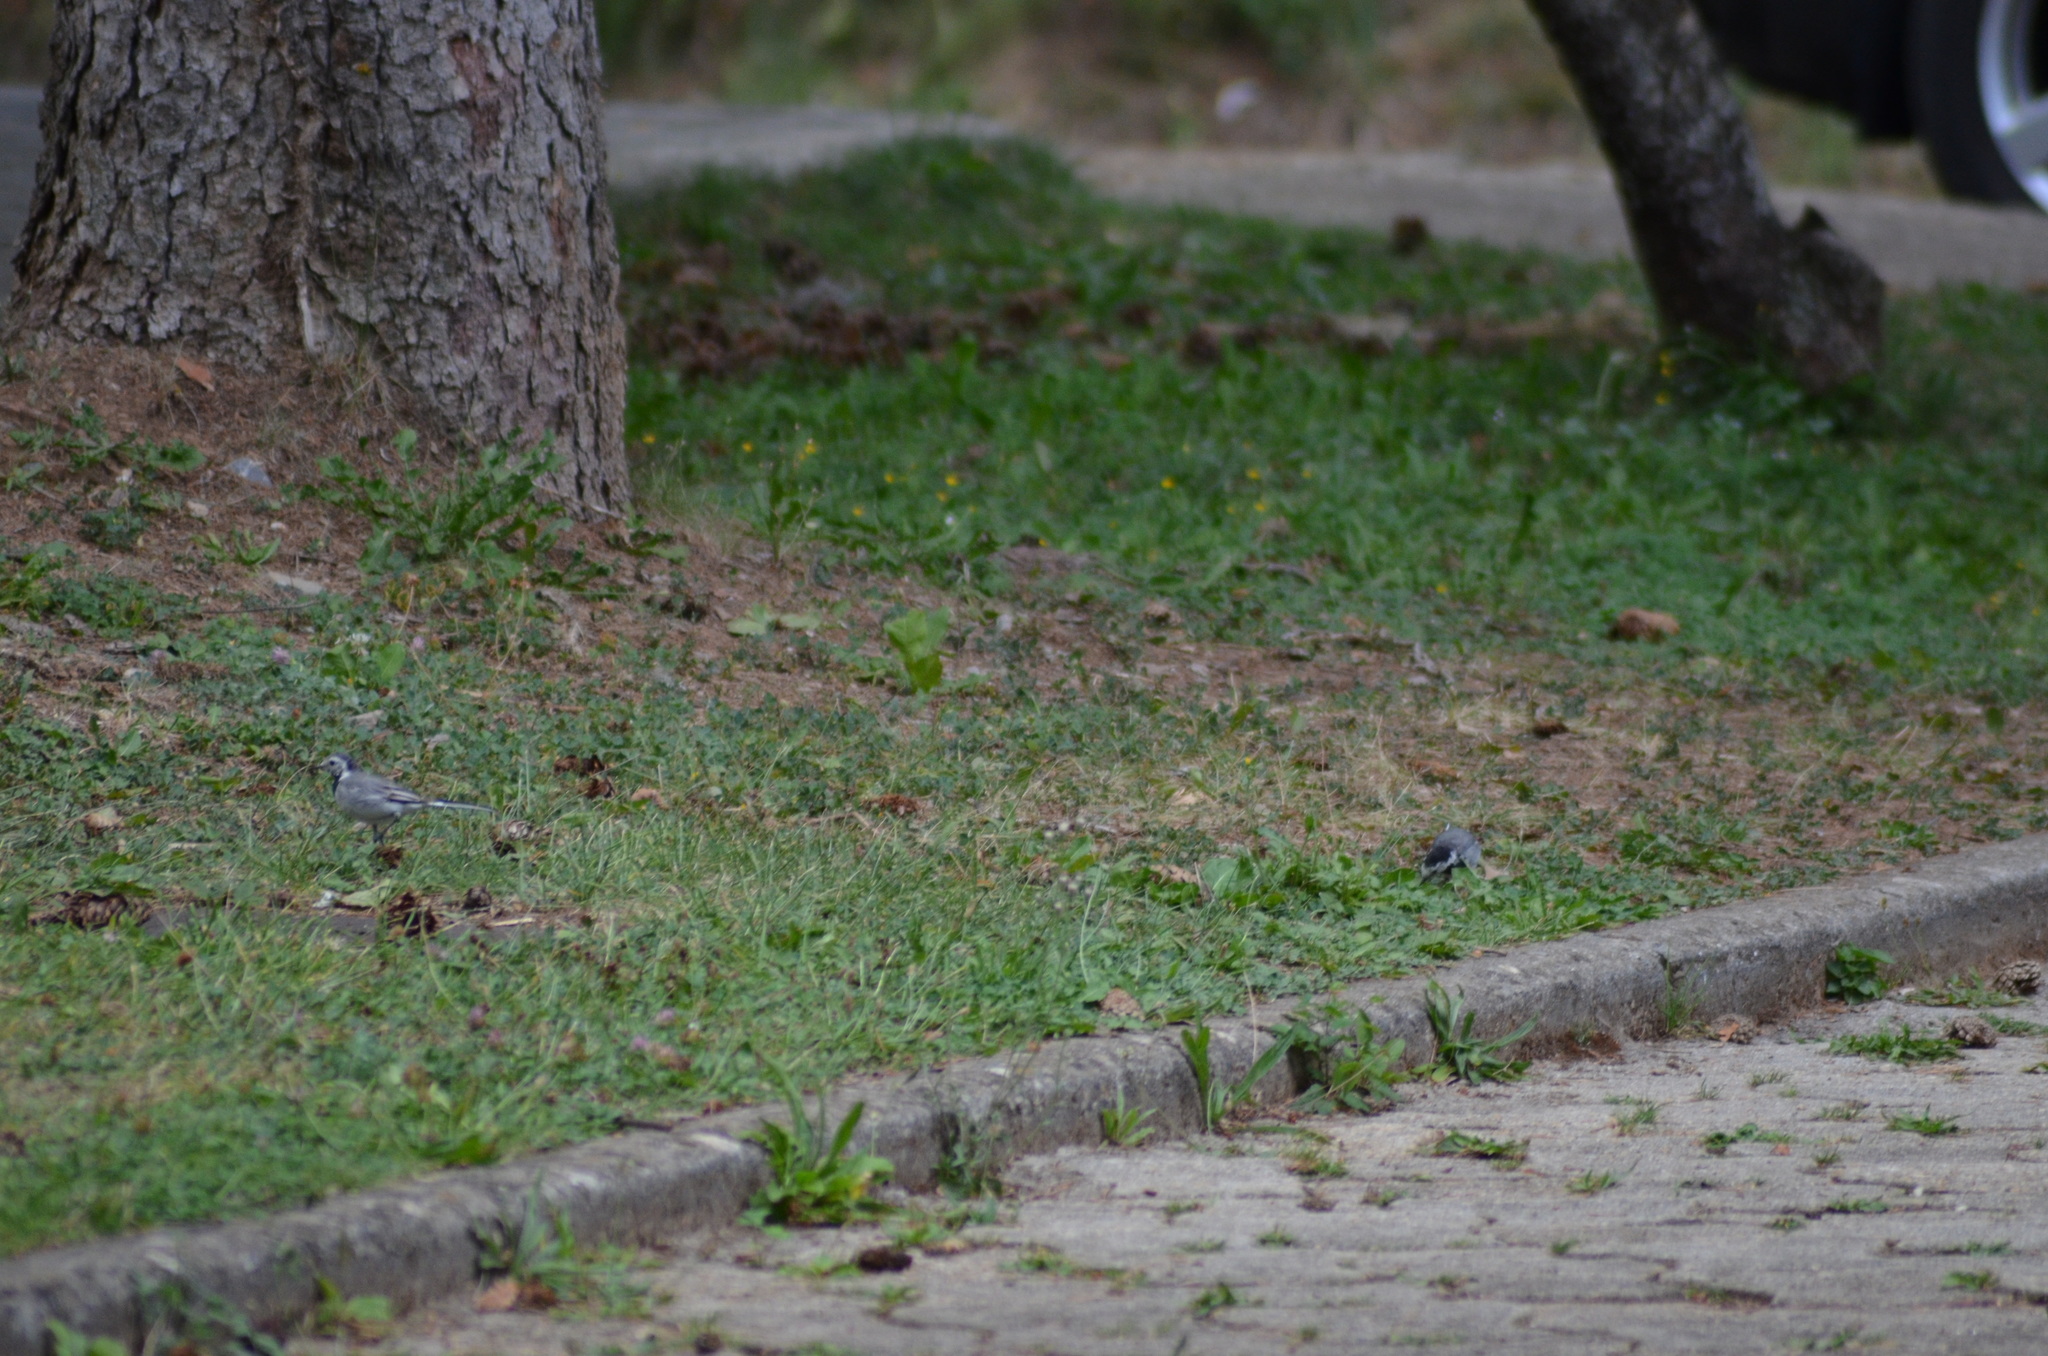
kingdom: Animalia
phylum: Chordata
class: Aves
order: Passeriformes
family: Motacillidae
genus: Motacilla
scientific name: Motacilla alba
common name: White wagtail
